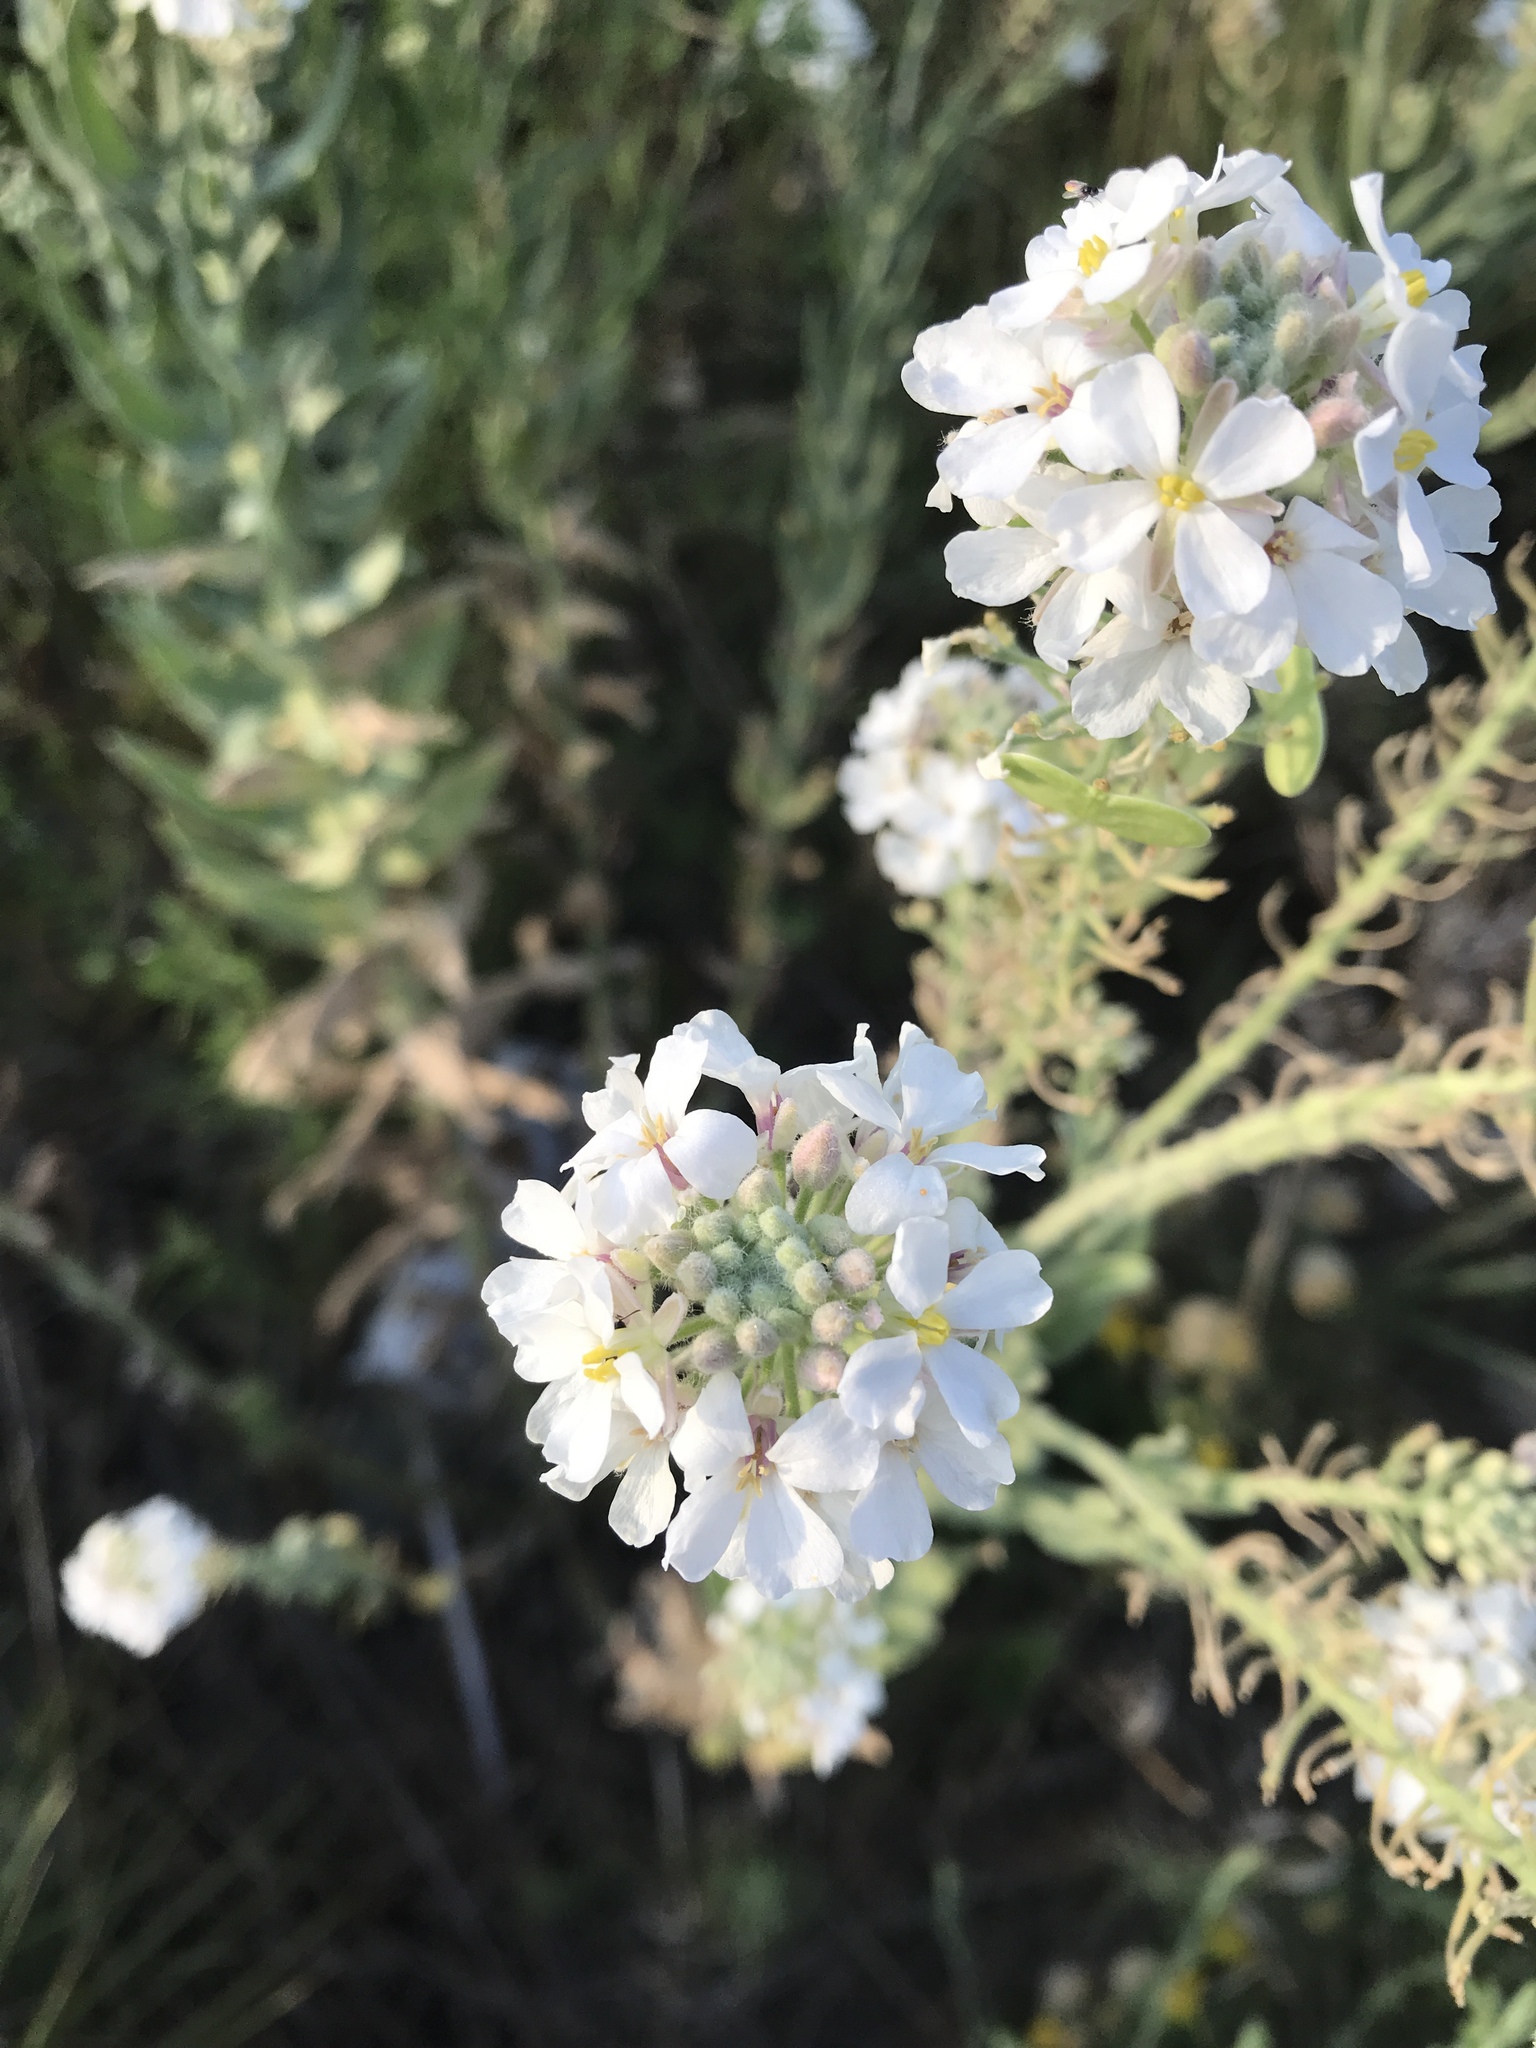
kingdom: Plantae
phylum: Tracheophyta
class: Magnoliopsida
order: Brassicales
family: Brassicaceae
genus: Dimorphocarpa
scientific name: Dimorphocarpa candicans
